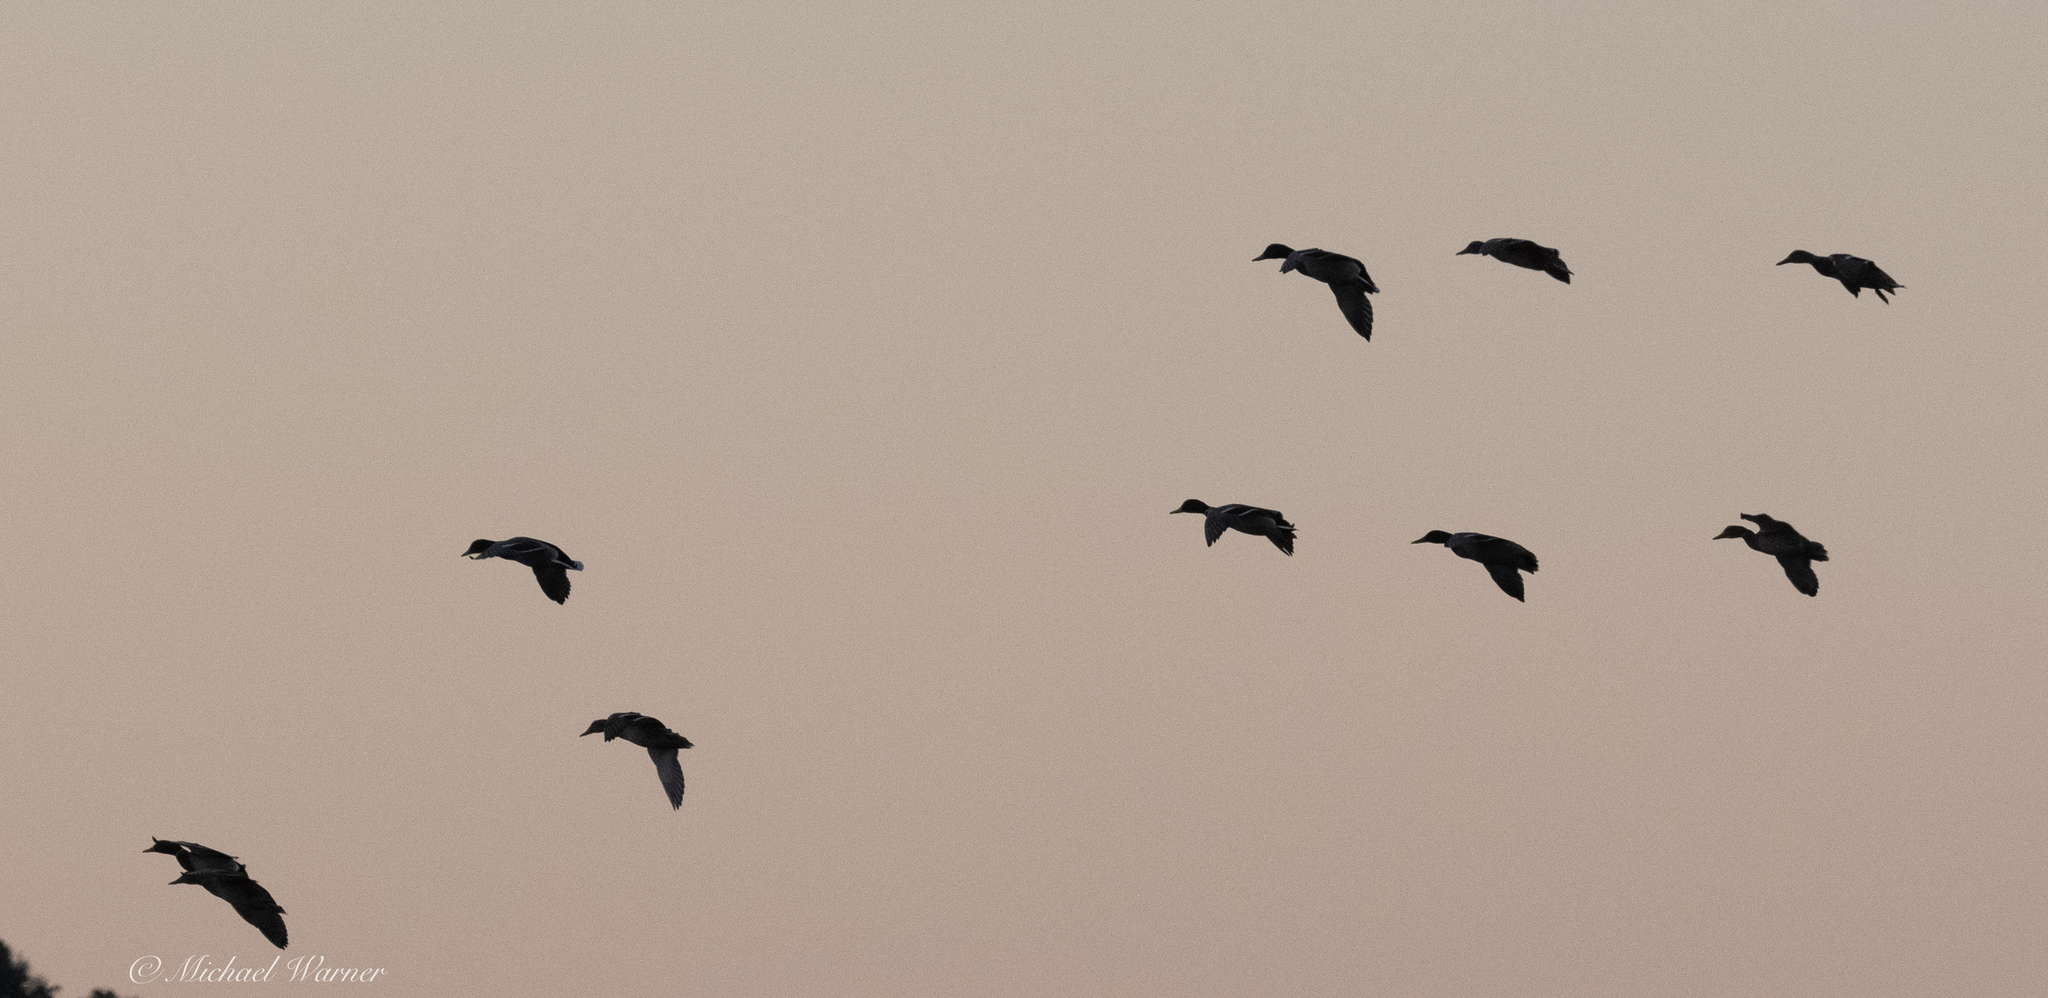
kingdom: Animalia
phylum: Chordata
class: Aves
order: Anseriformes
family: Anatidae
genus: Anas
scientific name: Anas platyrhynchos
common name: Mallard
